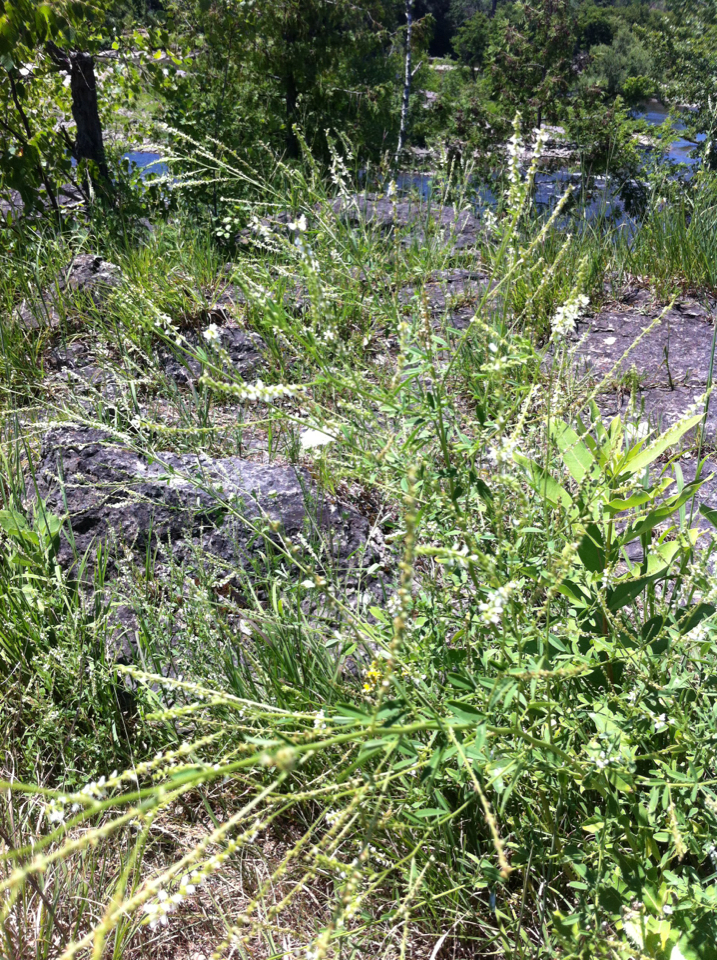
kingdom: Plantae
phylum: Tracheophyta
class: Magnoliopsida
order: Fabales
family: Fabaceae
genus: Melilotus
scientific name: Melilotus albus
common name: White melilot
